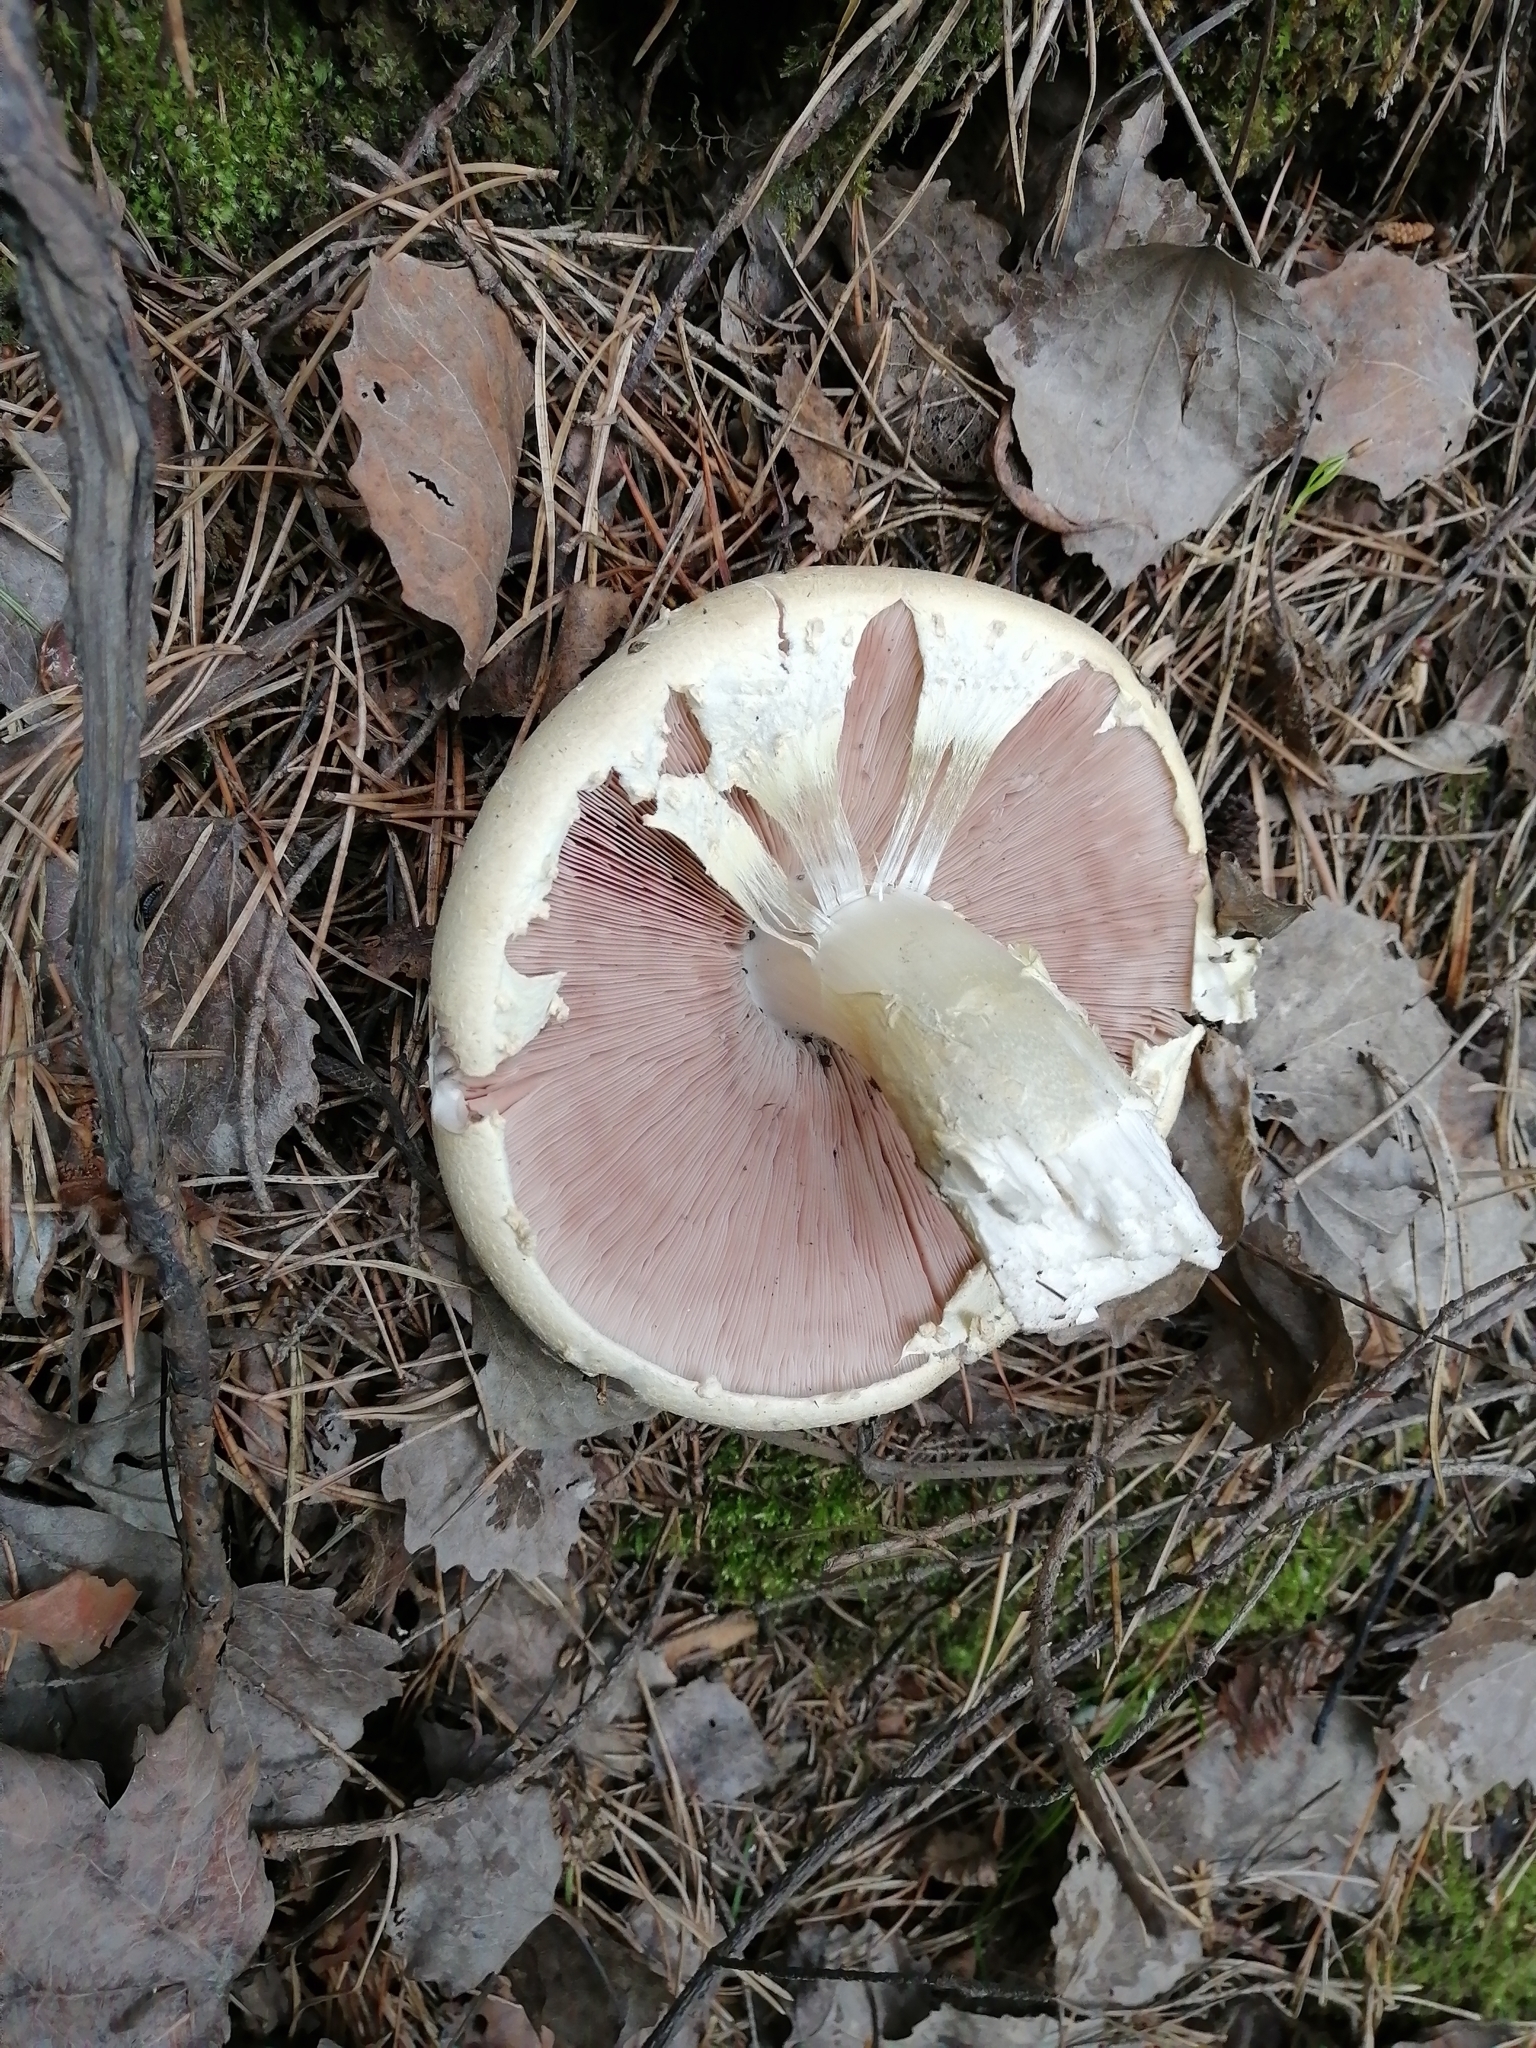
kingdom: Fungi
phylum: Basidiomycota
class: Agaricomycetes
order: Agaricales
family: Agaricaceae
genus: Agaricus
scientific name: Agaricus campestris
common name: Field mushroom
